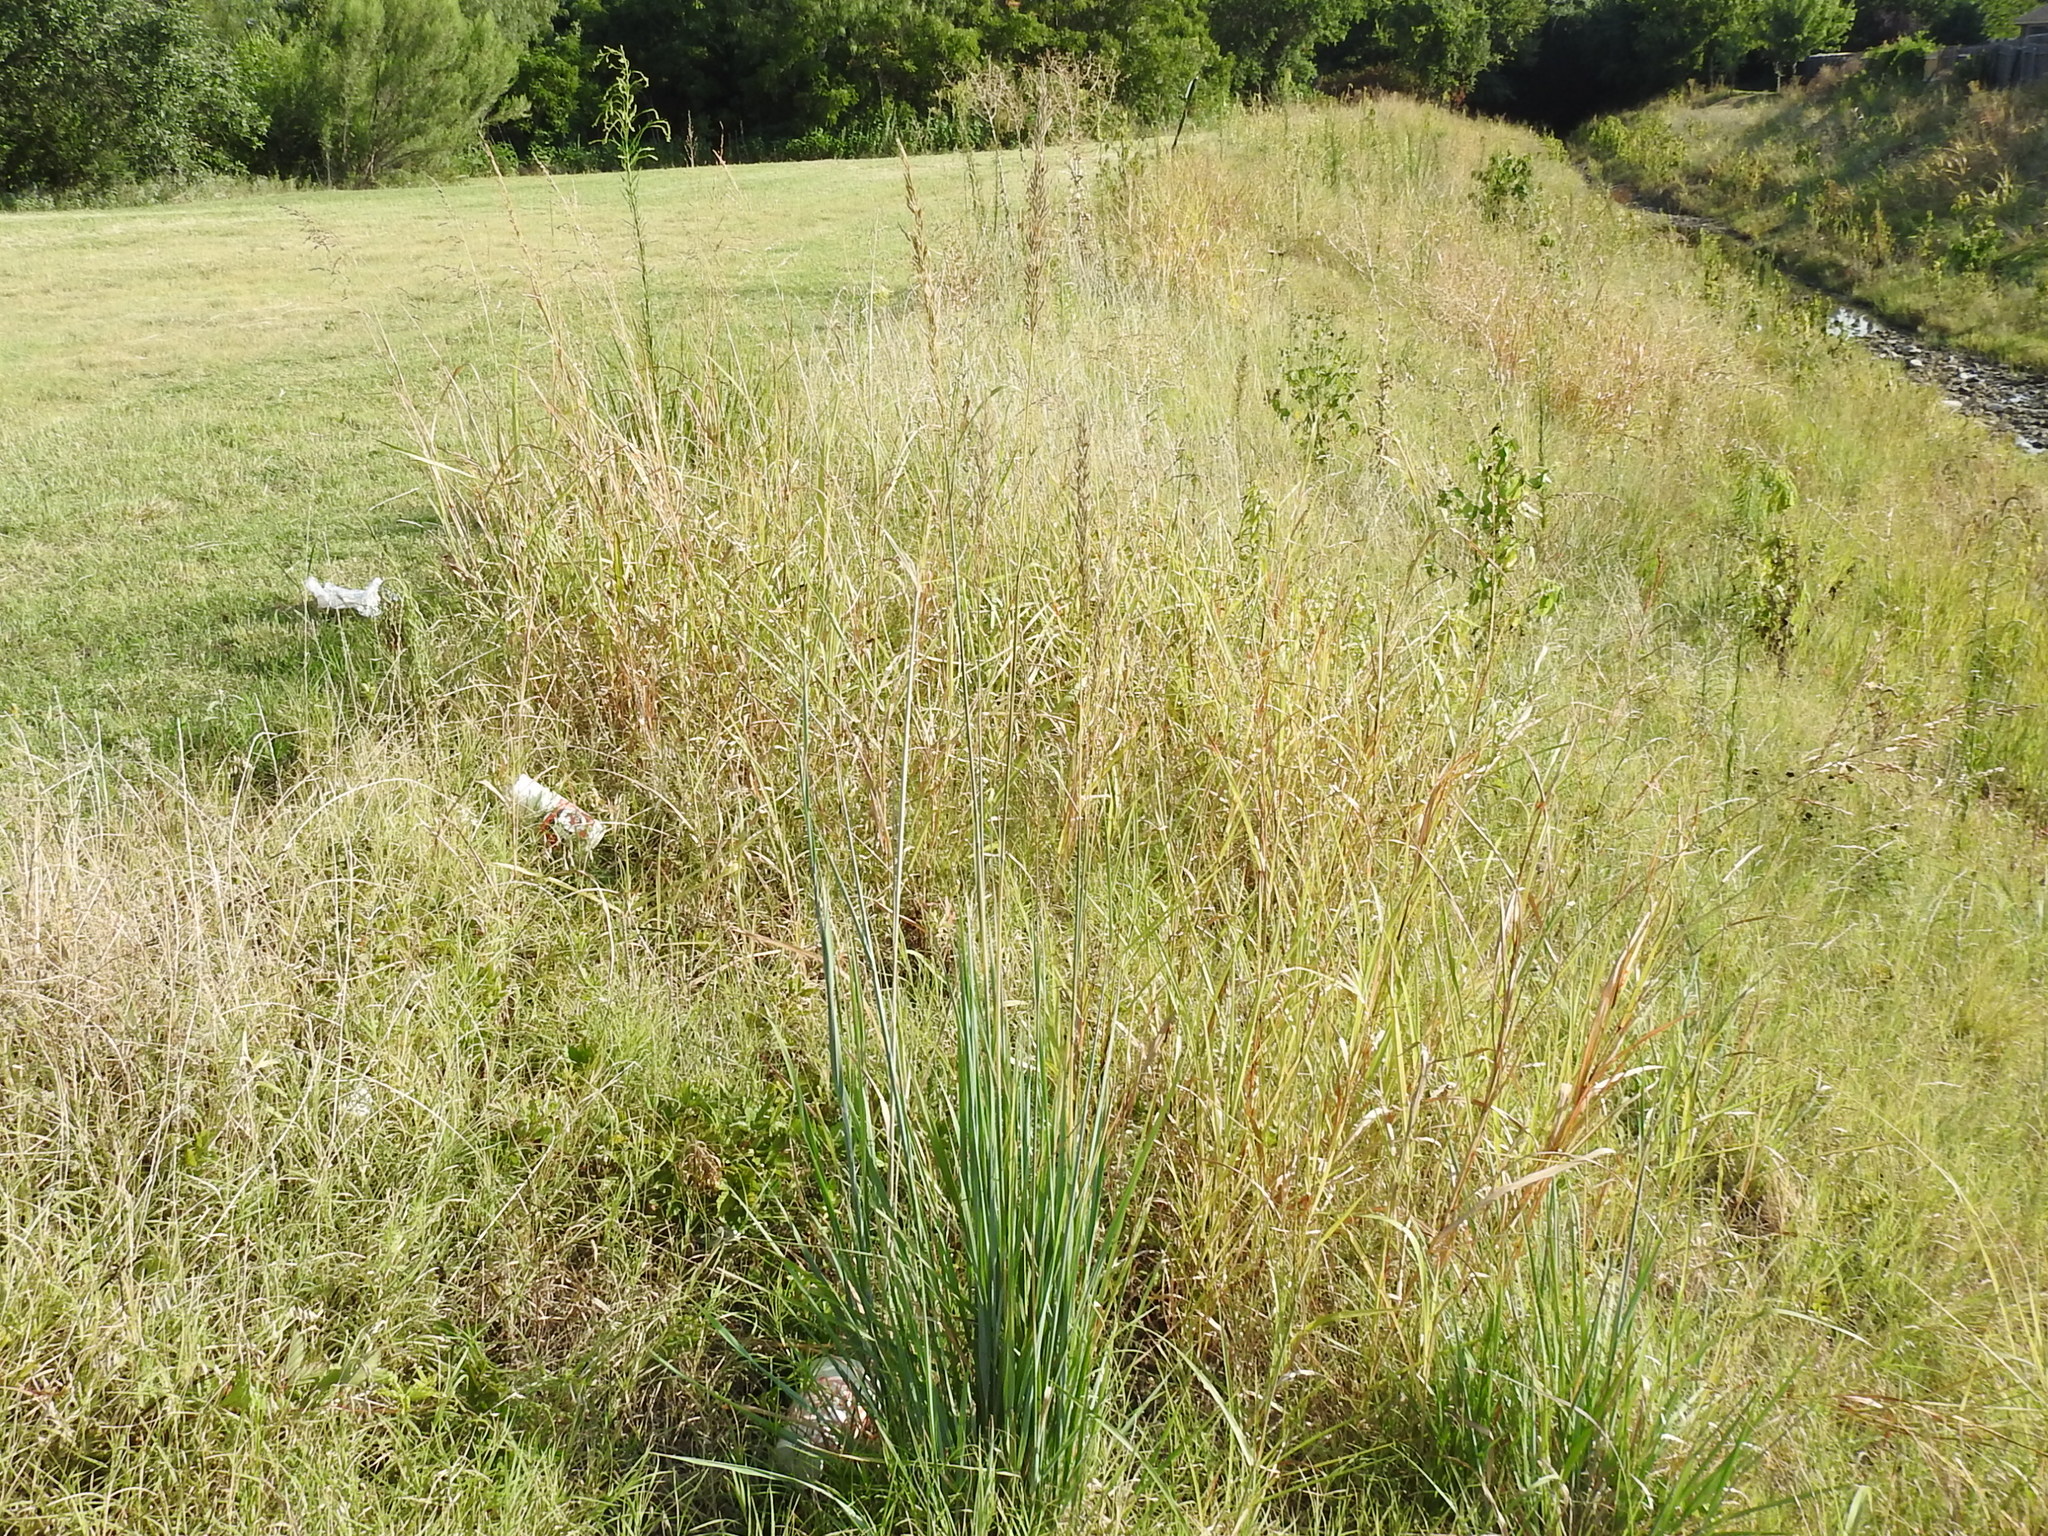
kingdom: Plantae
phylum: Tracheophyta
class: Liliopsida
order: Poales
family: Poaceae
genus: Sorghastrum
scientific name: Sorghastrum nutans
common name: Indian grass
